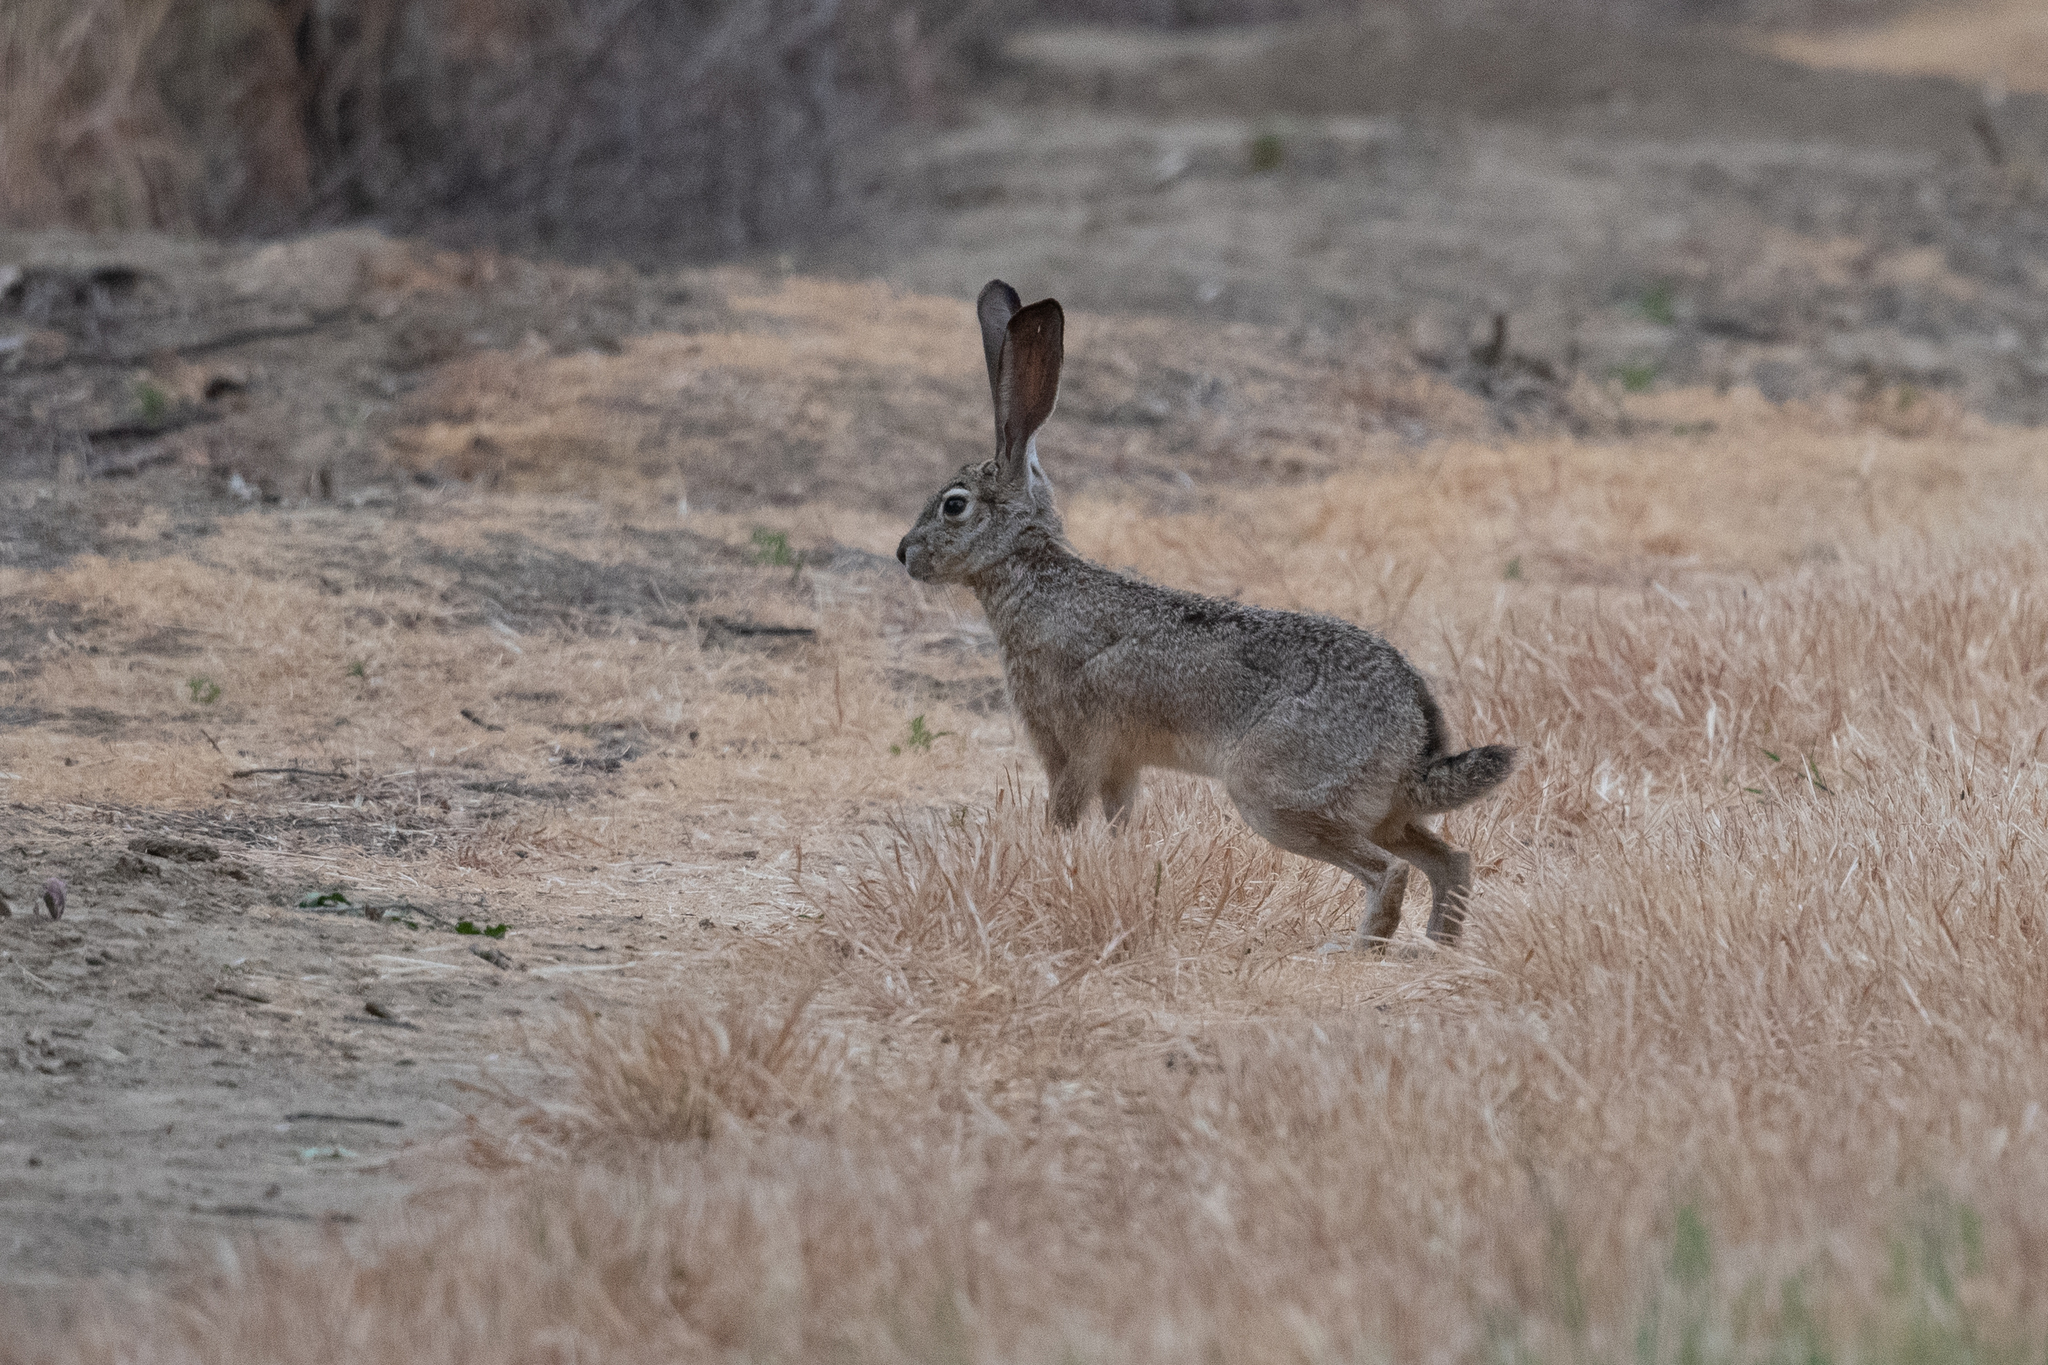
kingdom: Animalia
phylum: Chordata
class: Mammalia
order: Lagomorpha
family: Leporidae
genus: Lepus
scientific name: Lepus californicus
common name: Black-tailed jackrabbit
